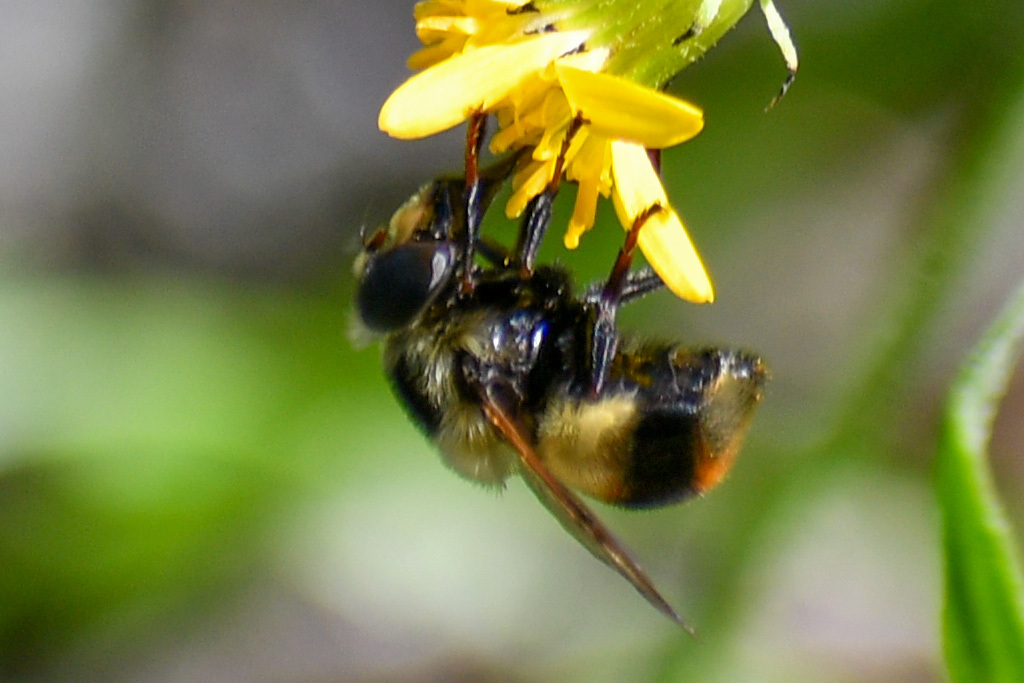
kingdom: Animalia
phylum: Arthropoda
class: Insecta
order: Diptera
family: Syrphidae
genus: Volucella
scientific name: Volucella facialis
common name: Yellow-faced swiftwing
